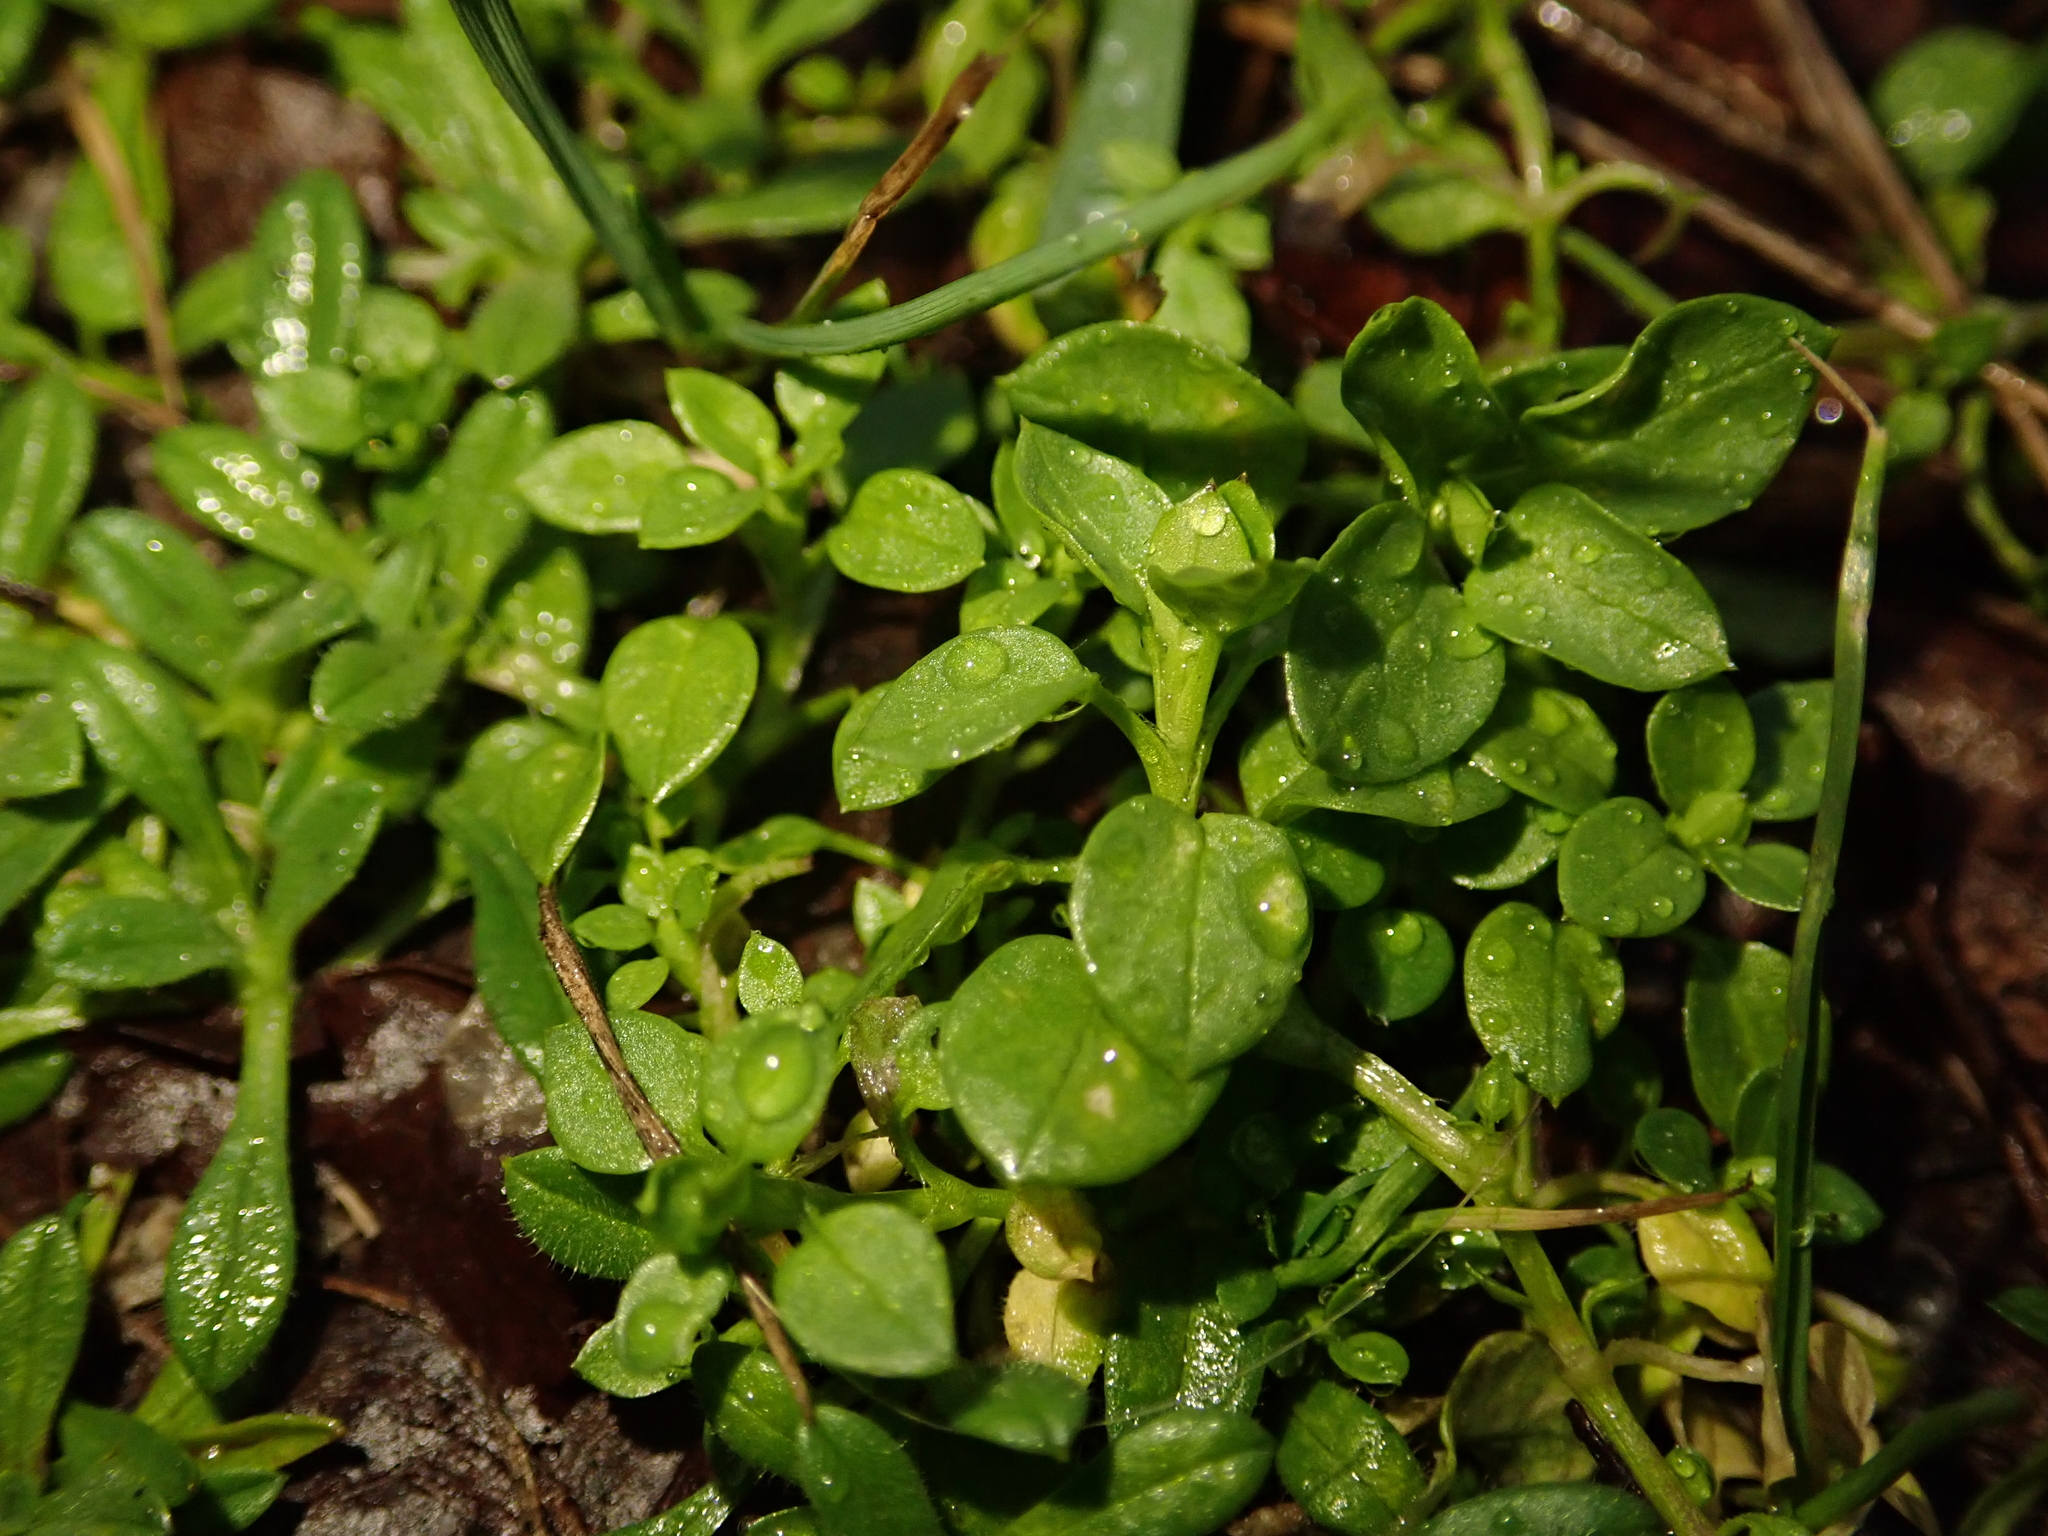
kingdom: Plantae
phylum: Tracheophyta
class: Magnoliopsida
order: Caryophyllales
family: Caryophyllaceae
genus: Stellaria
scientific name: Stellaria media
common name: Common chickweed
